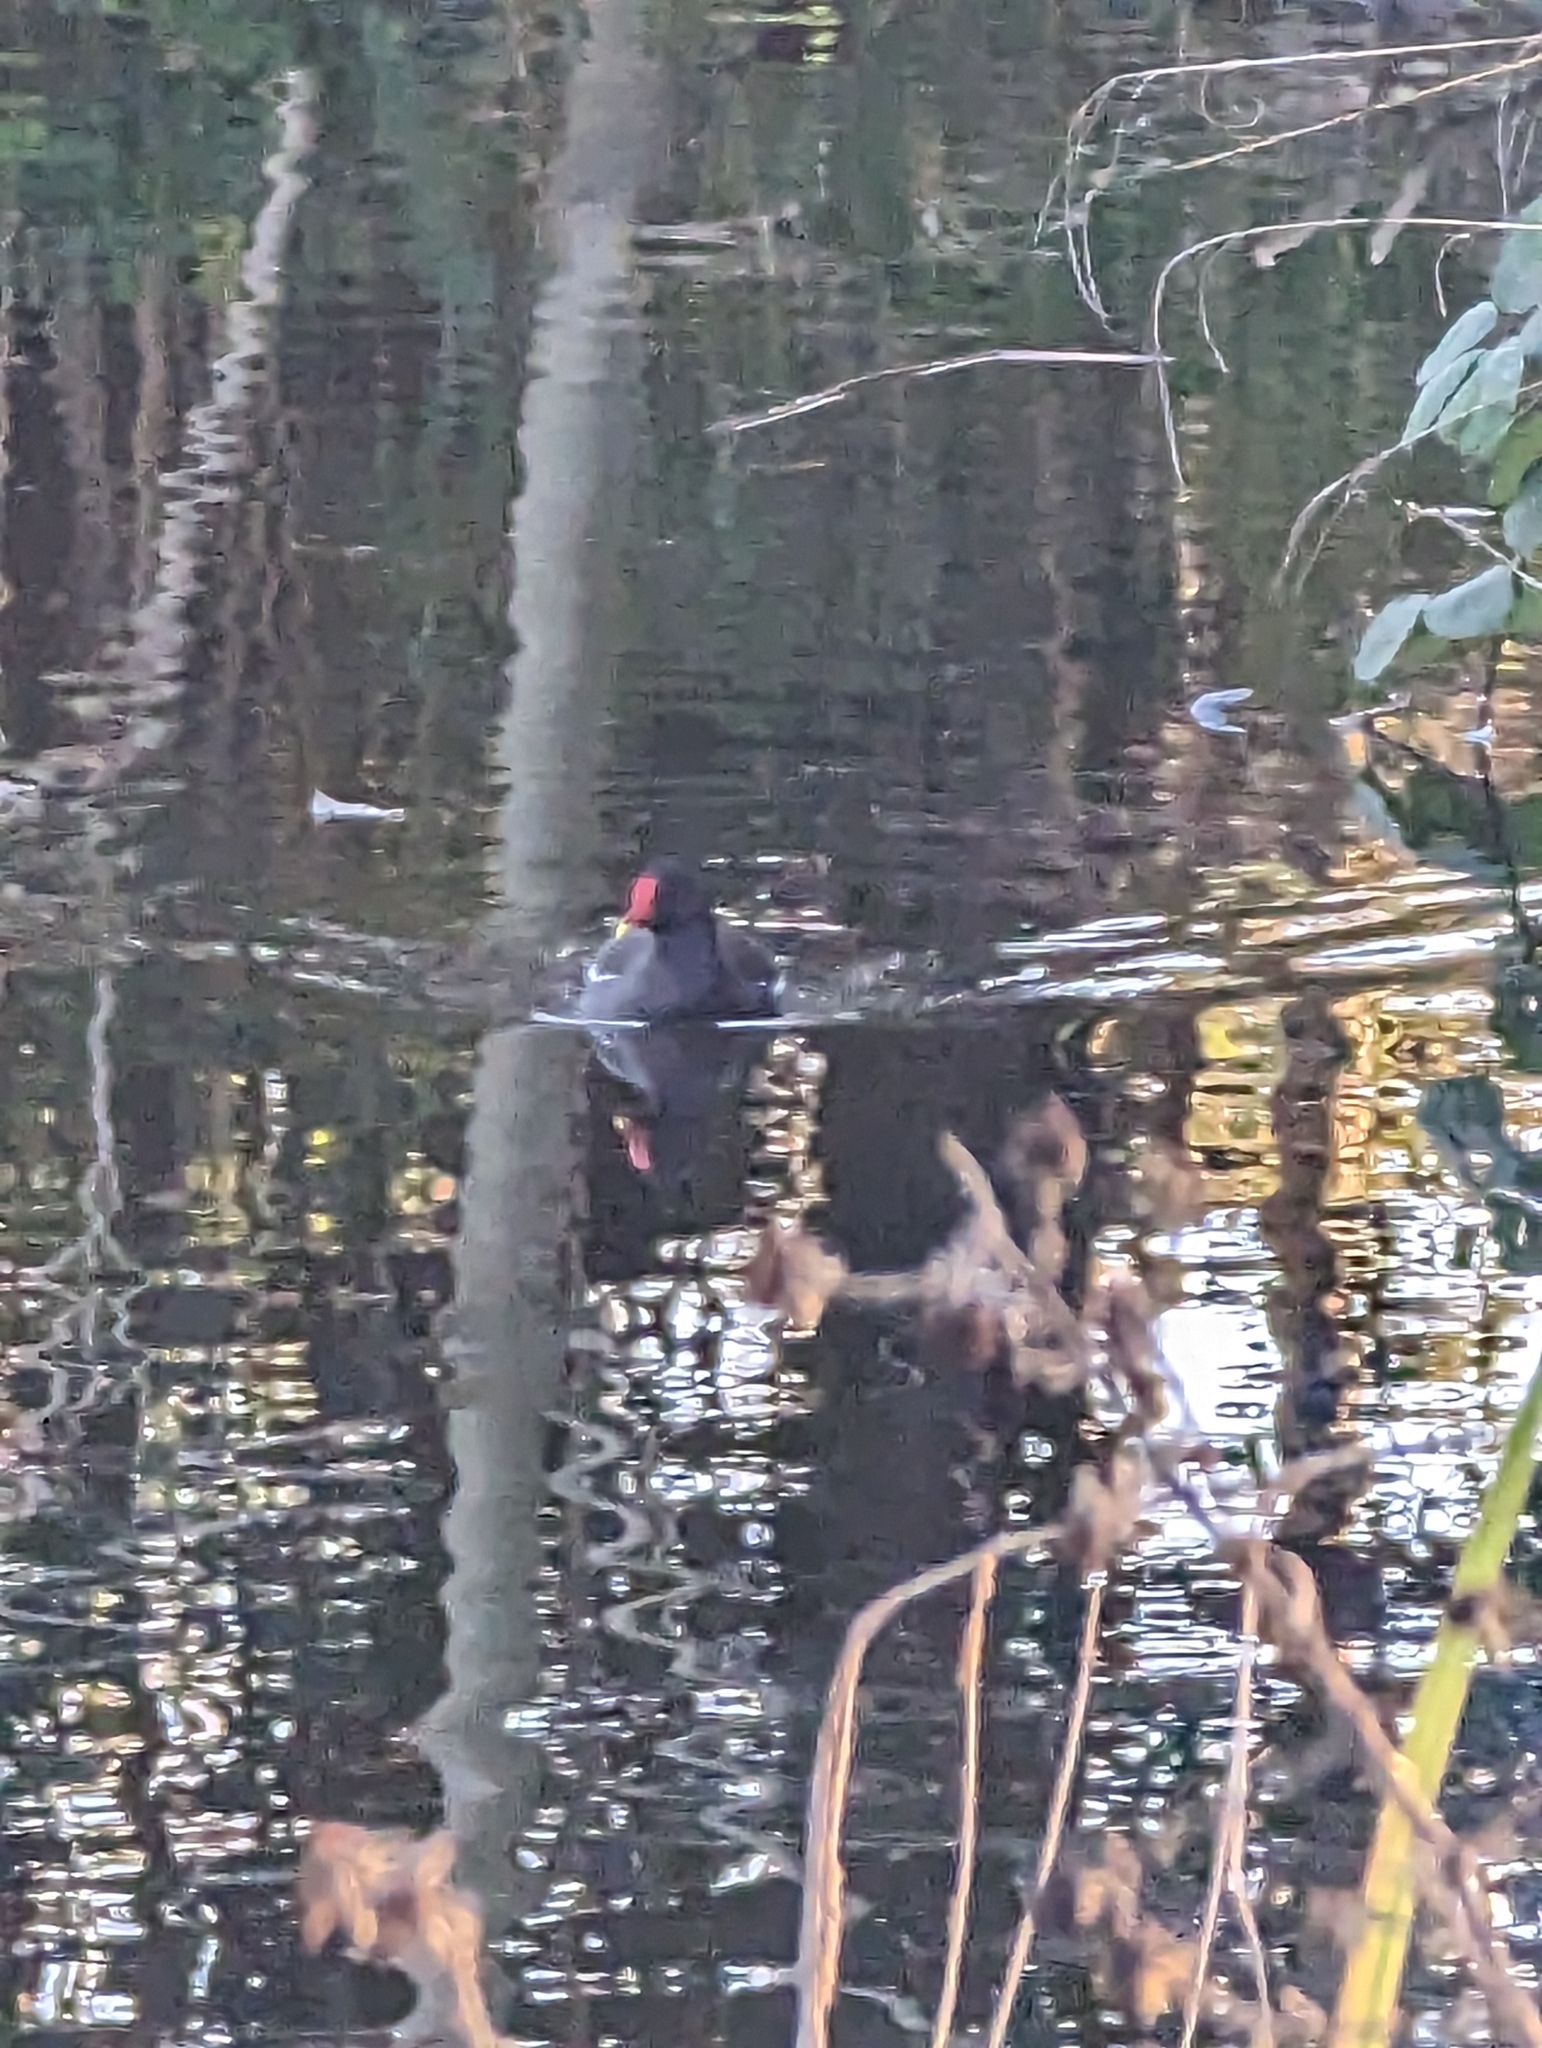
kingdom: Animalia
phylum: Chordata
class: Aves
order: Gruiformes
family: Rallidae
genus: Gallinula
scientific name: Gallinula chloropus
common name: Common moorhen
